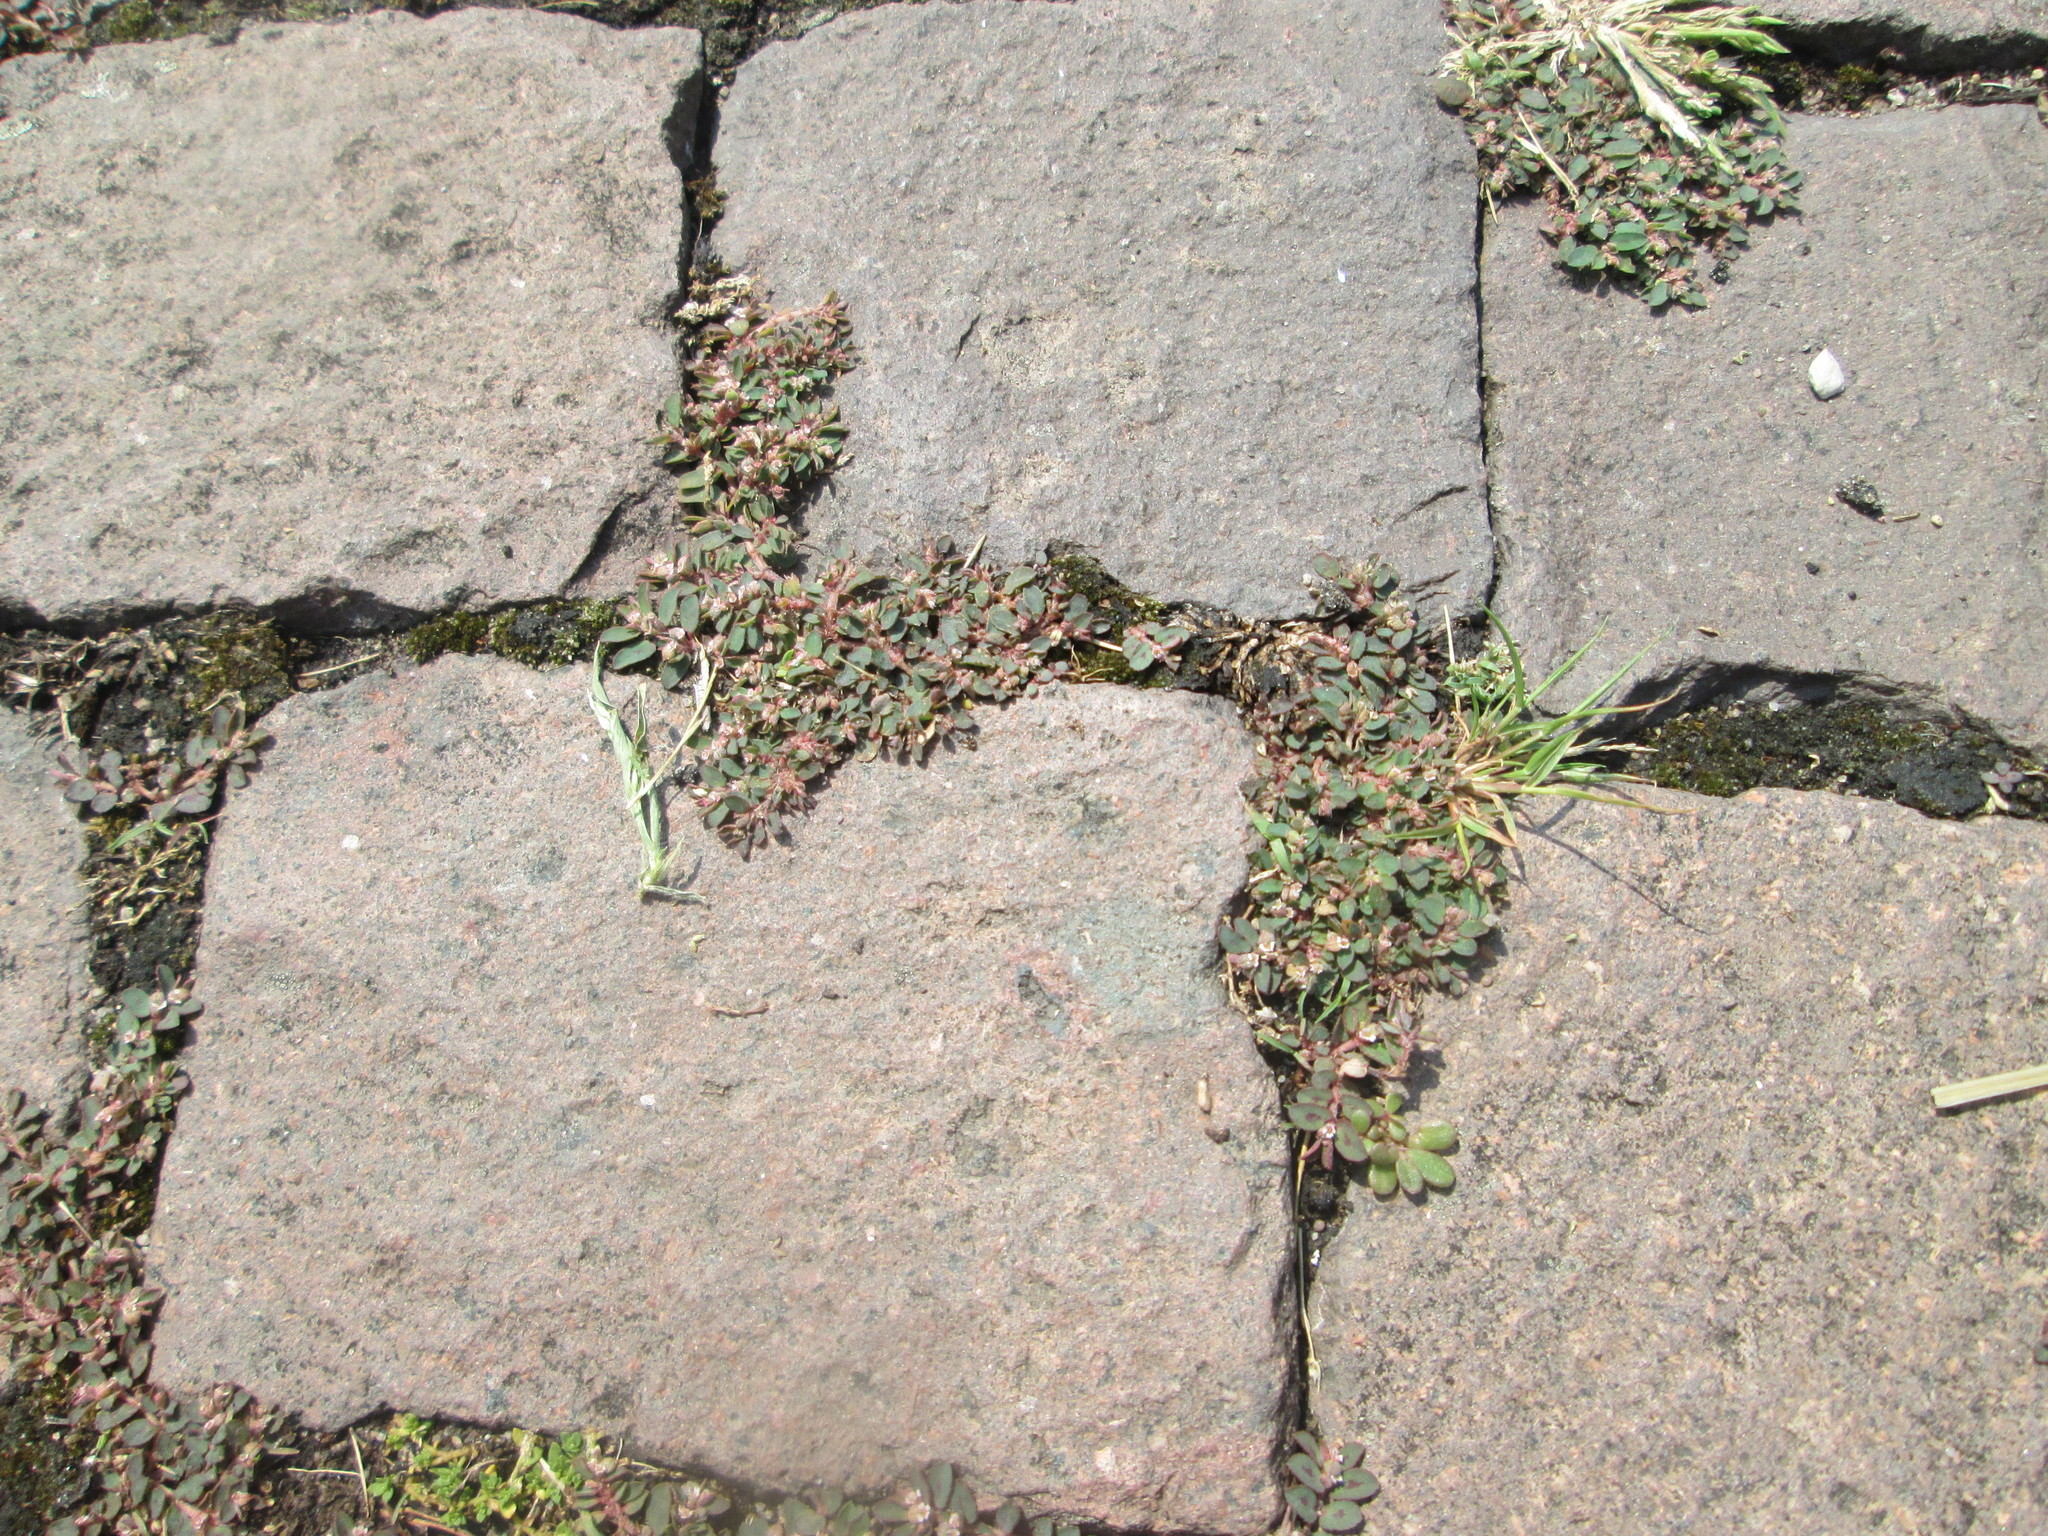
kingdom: Plantae
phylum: Tracheophyta
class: Magnoliopsida
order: Malpighiales
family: Euphorbiaceae
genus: Euphorbia
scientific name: Euphorbia maculata
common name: Spotted spurge
